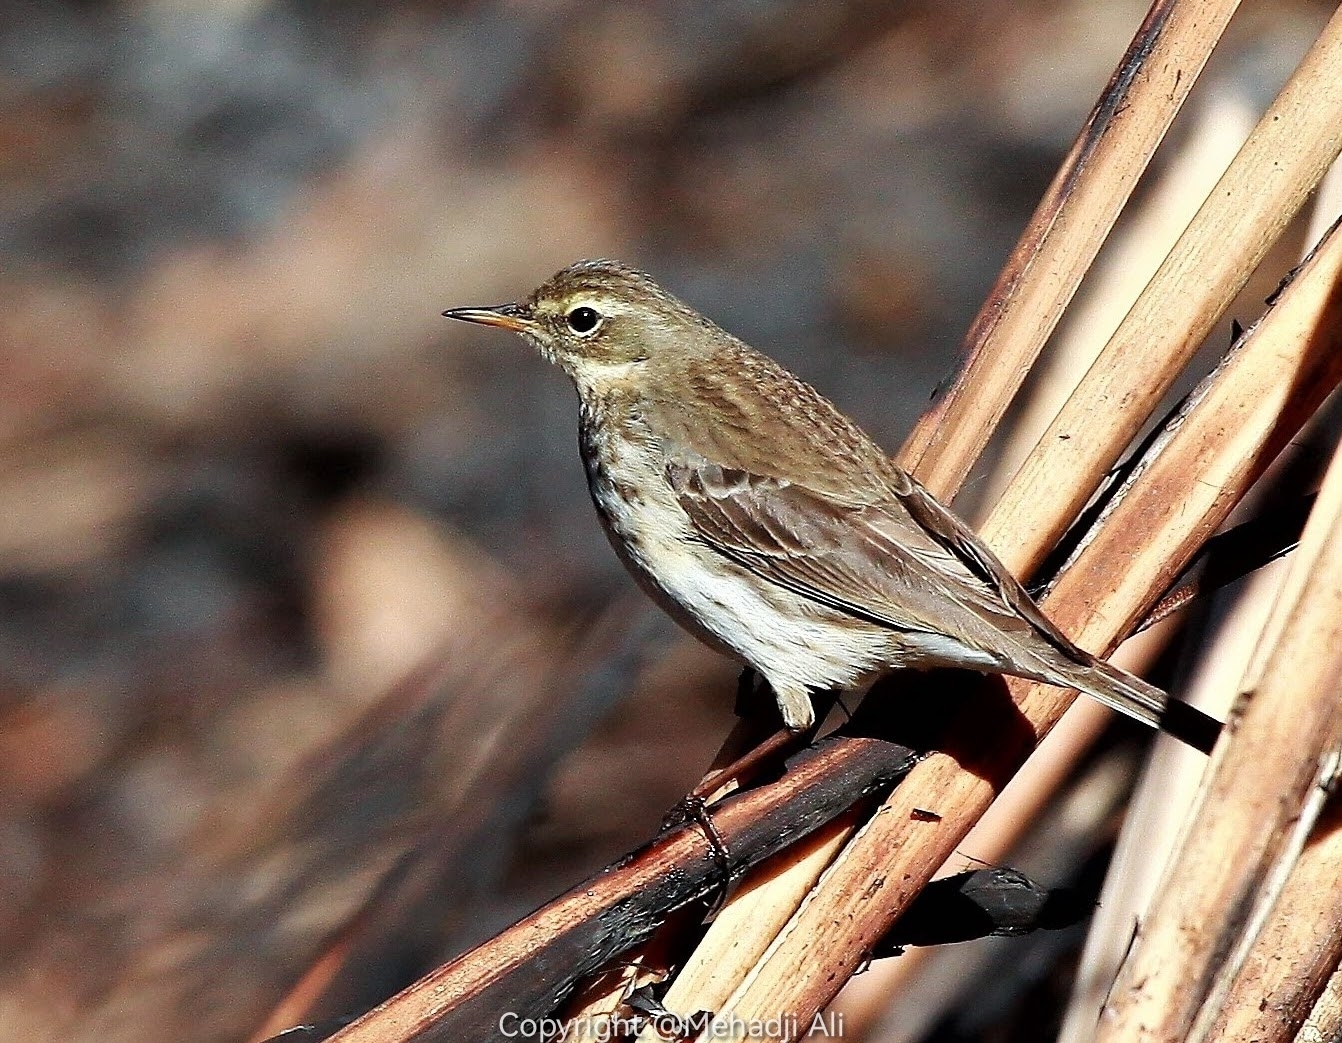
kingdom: Animalia
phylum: Chordata
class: Aves
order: Passeriformes
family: Motacillidae
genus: Anthus
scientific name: Anthus spinoletta
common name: Water pipit
